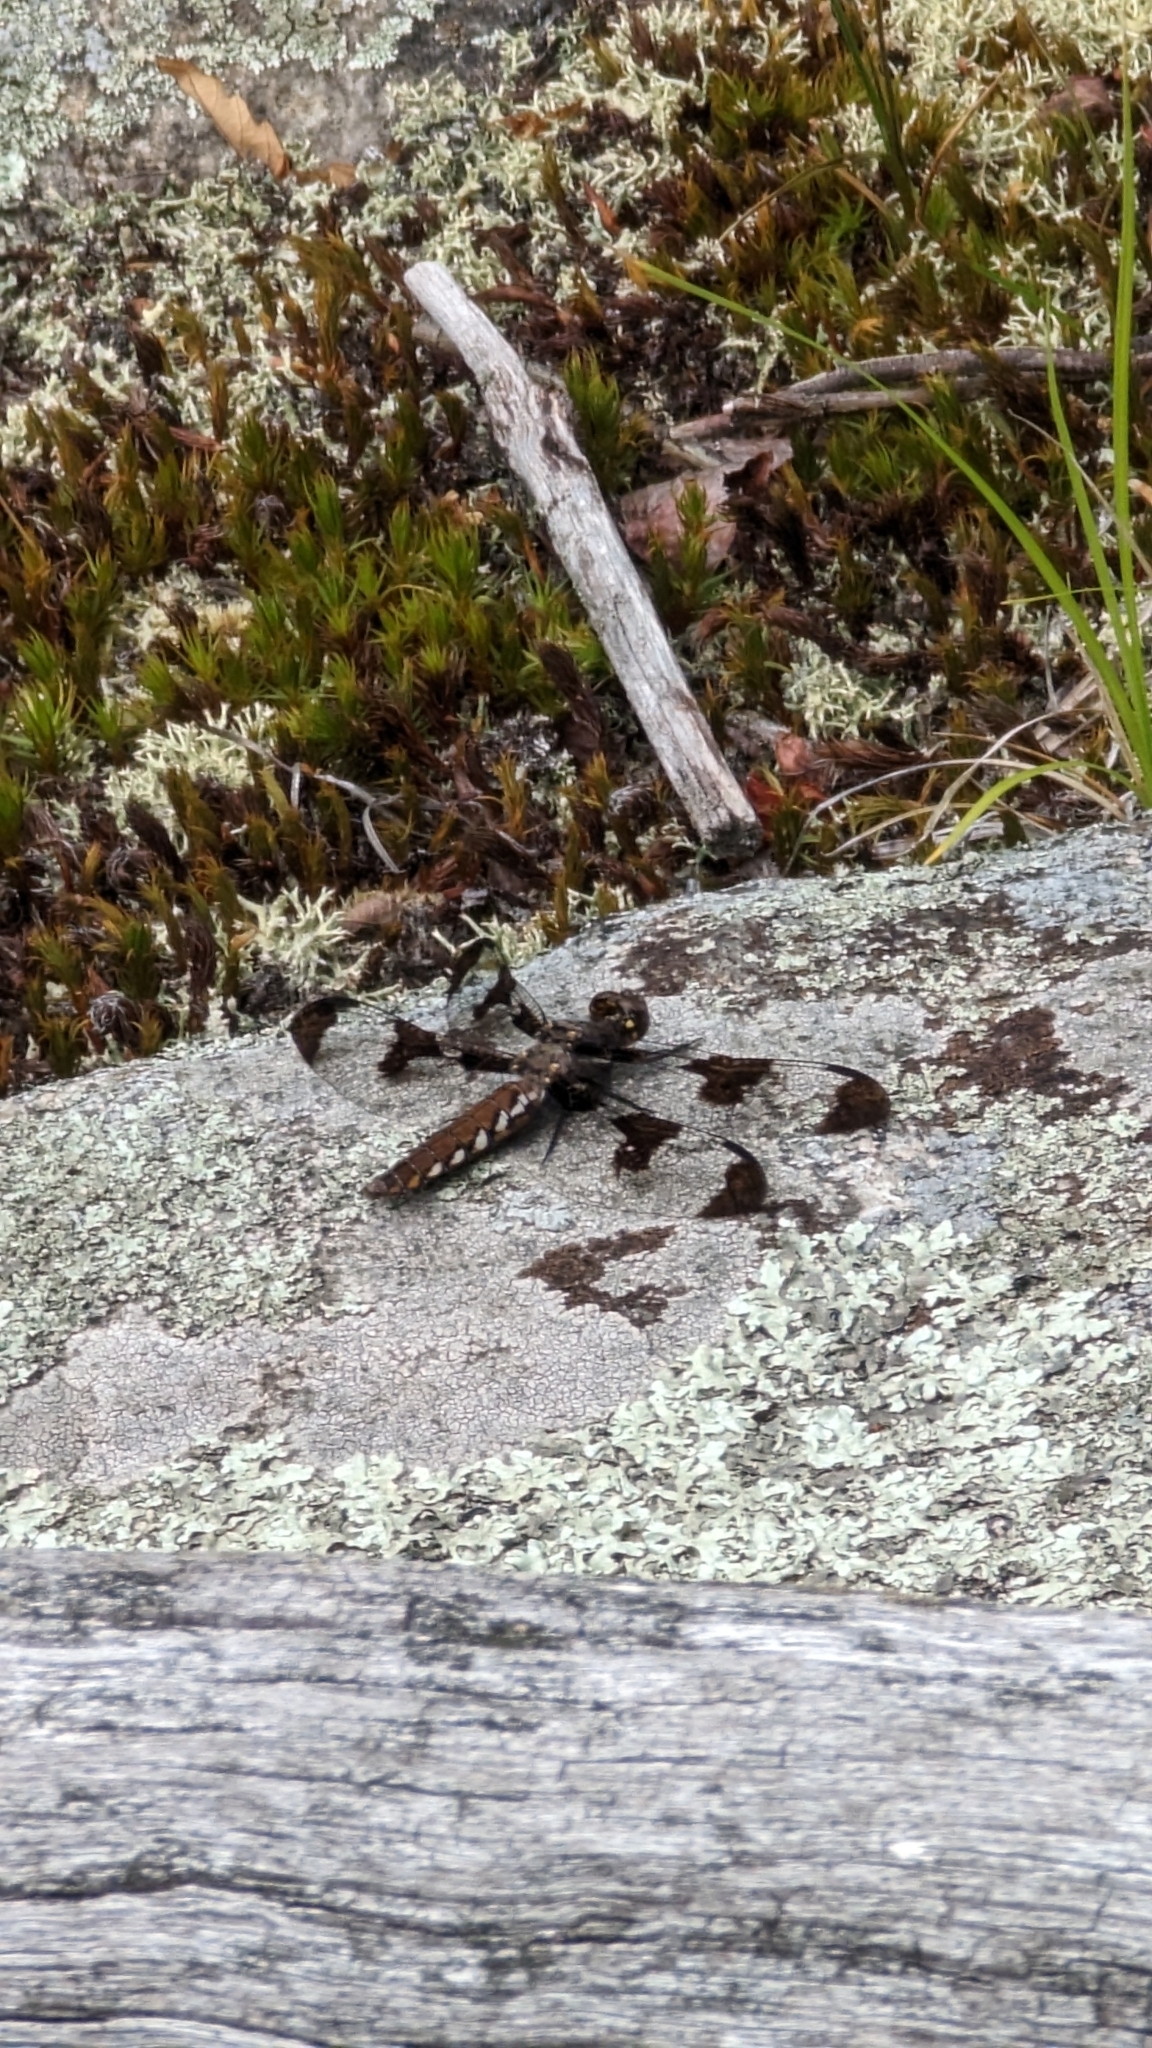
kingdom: Animalia
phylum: Arthropoda
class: Insecta
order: Odonata
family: Libellulidae
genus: Plathemis
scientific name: Plathemis lydia
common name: Common whitetail
